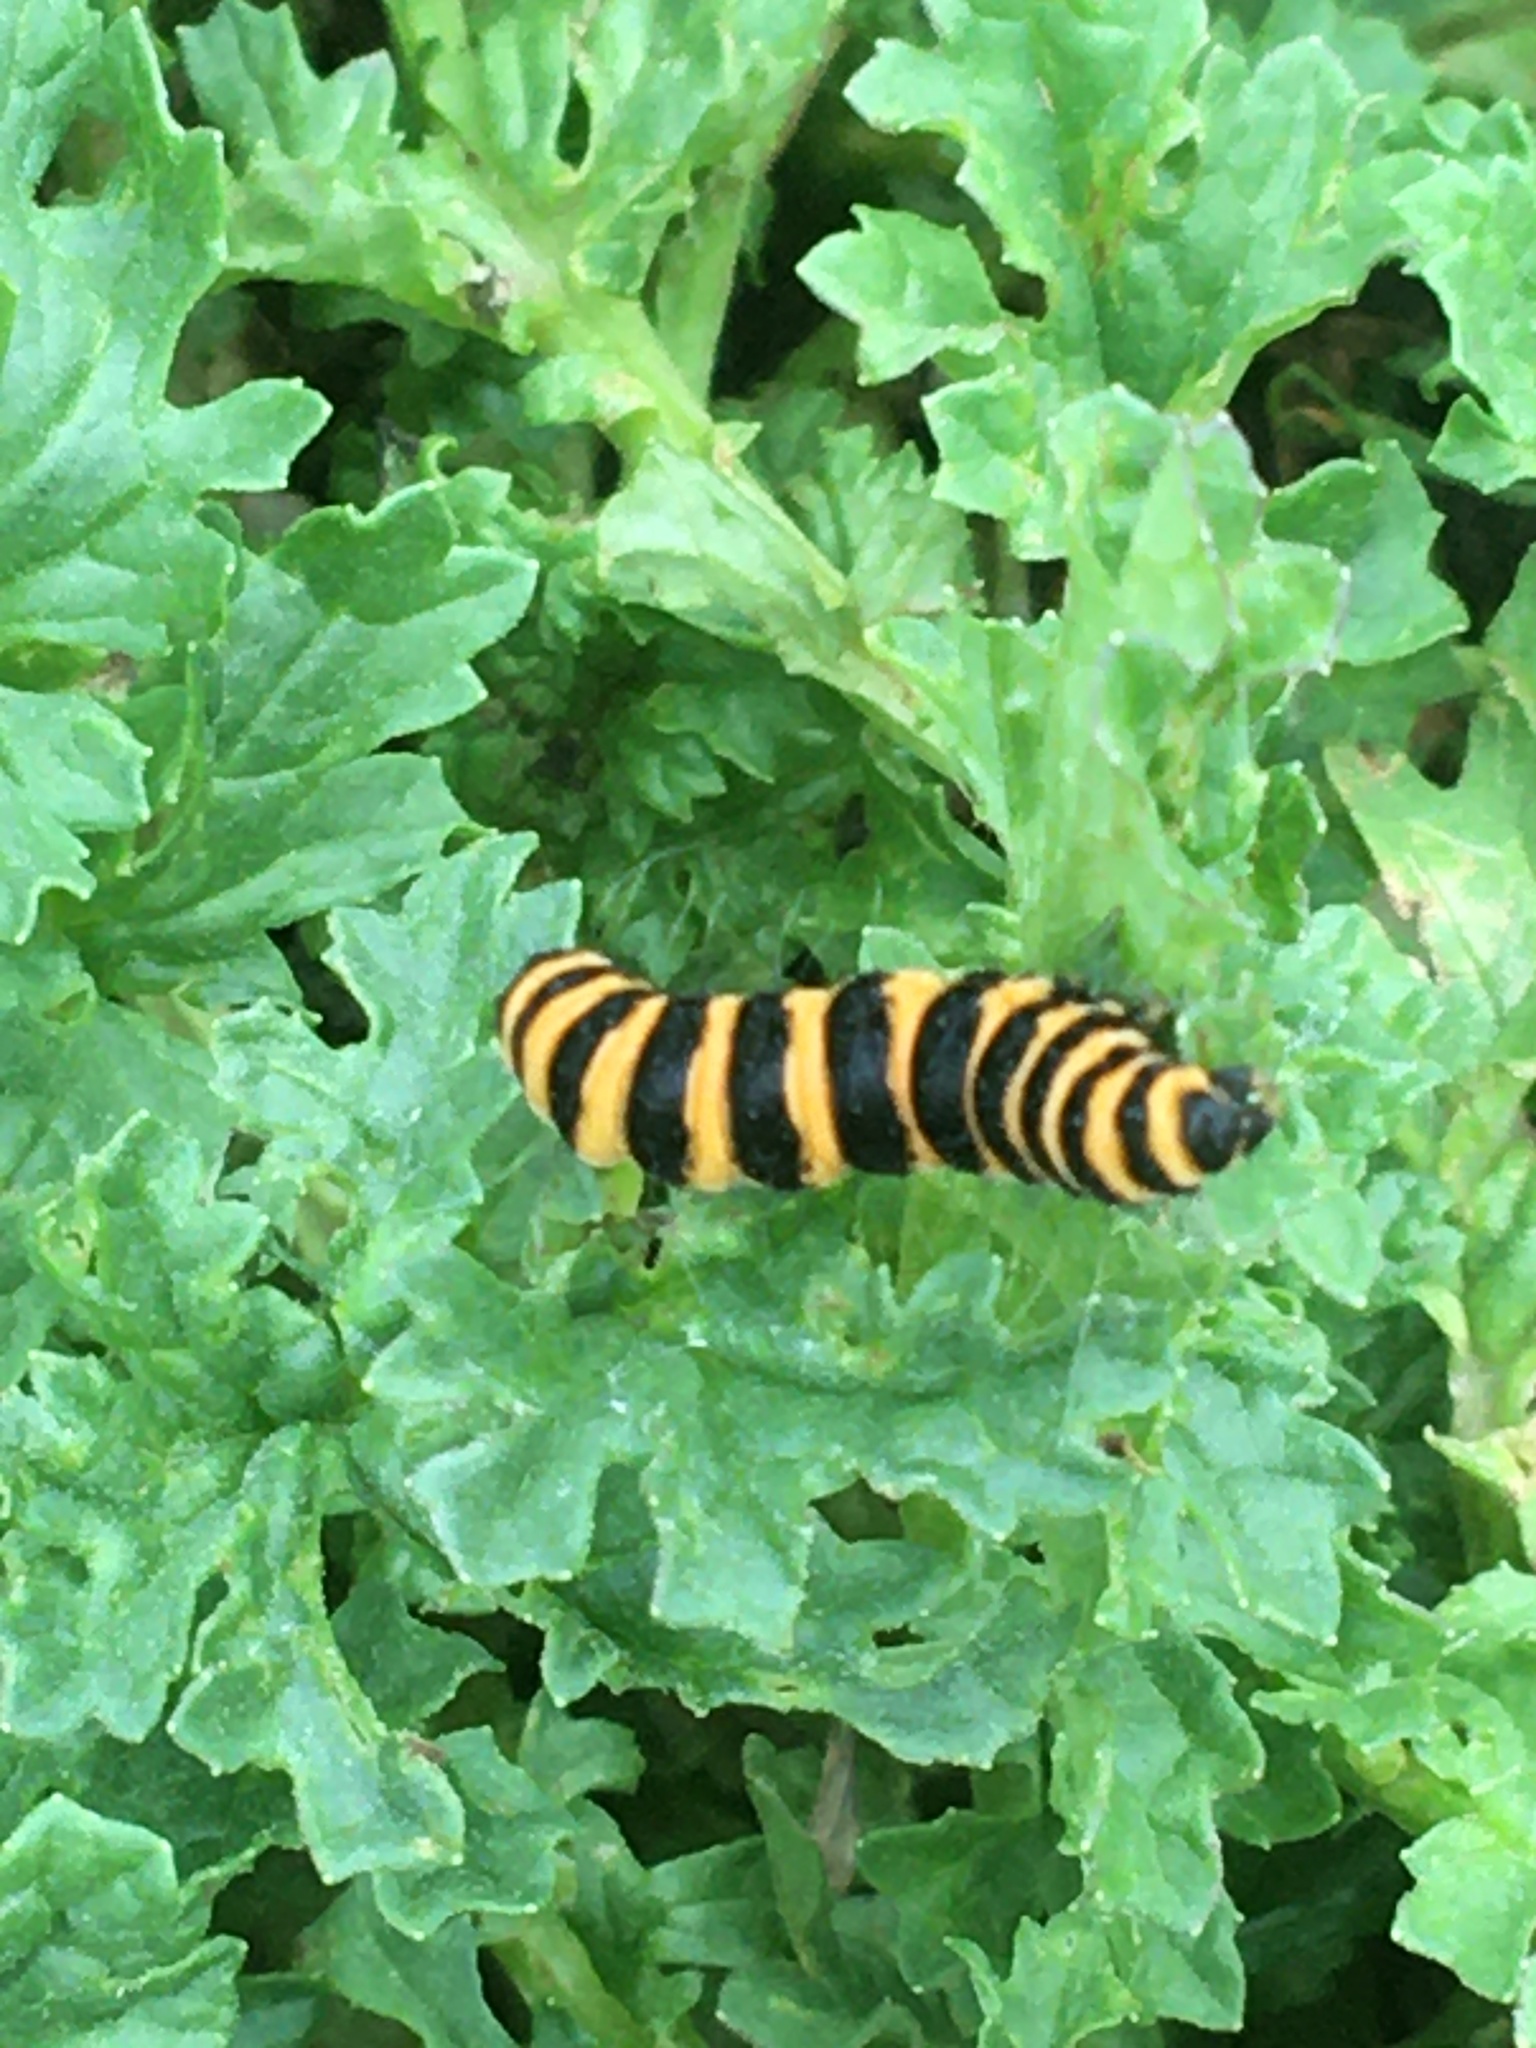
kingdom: Animalia
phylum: Arthropoda
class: Insecta
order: Lepidoptera
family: Erebidae
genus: Tyria
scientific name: Tyria jacobaeae
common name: Cinnabar
